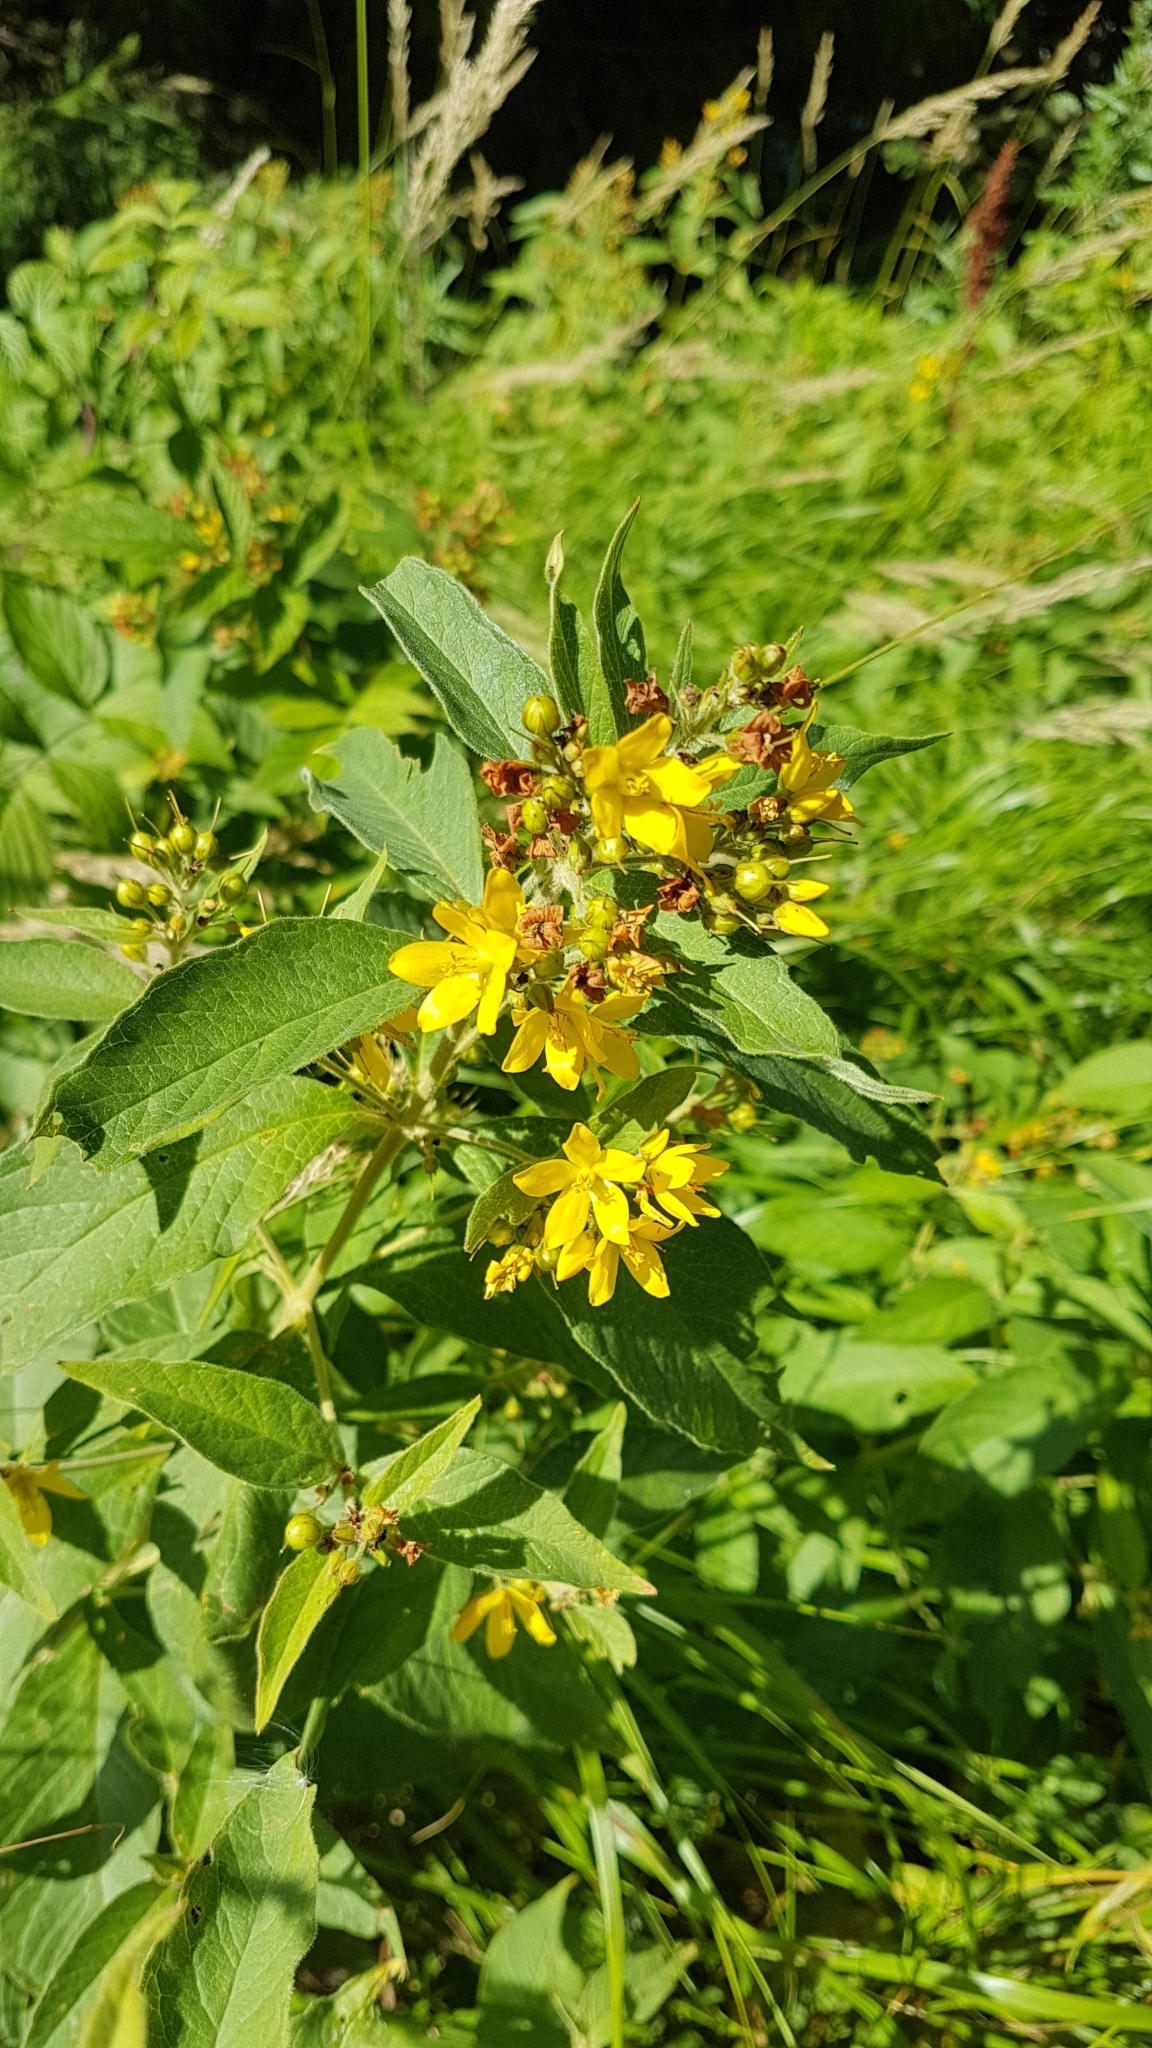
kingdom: Plantae
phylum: Tracheophyta
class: Magnoliopsida
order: Ericales
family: Primulaceae
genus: Lysimachia
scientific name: Lysimachia vulgaris
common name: Yellow loosestrife
